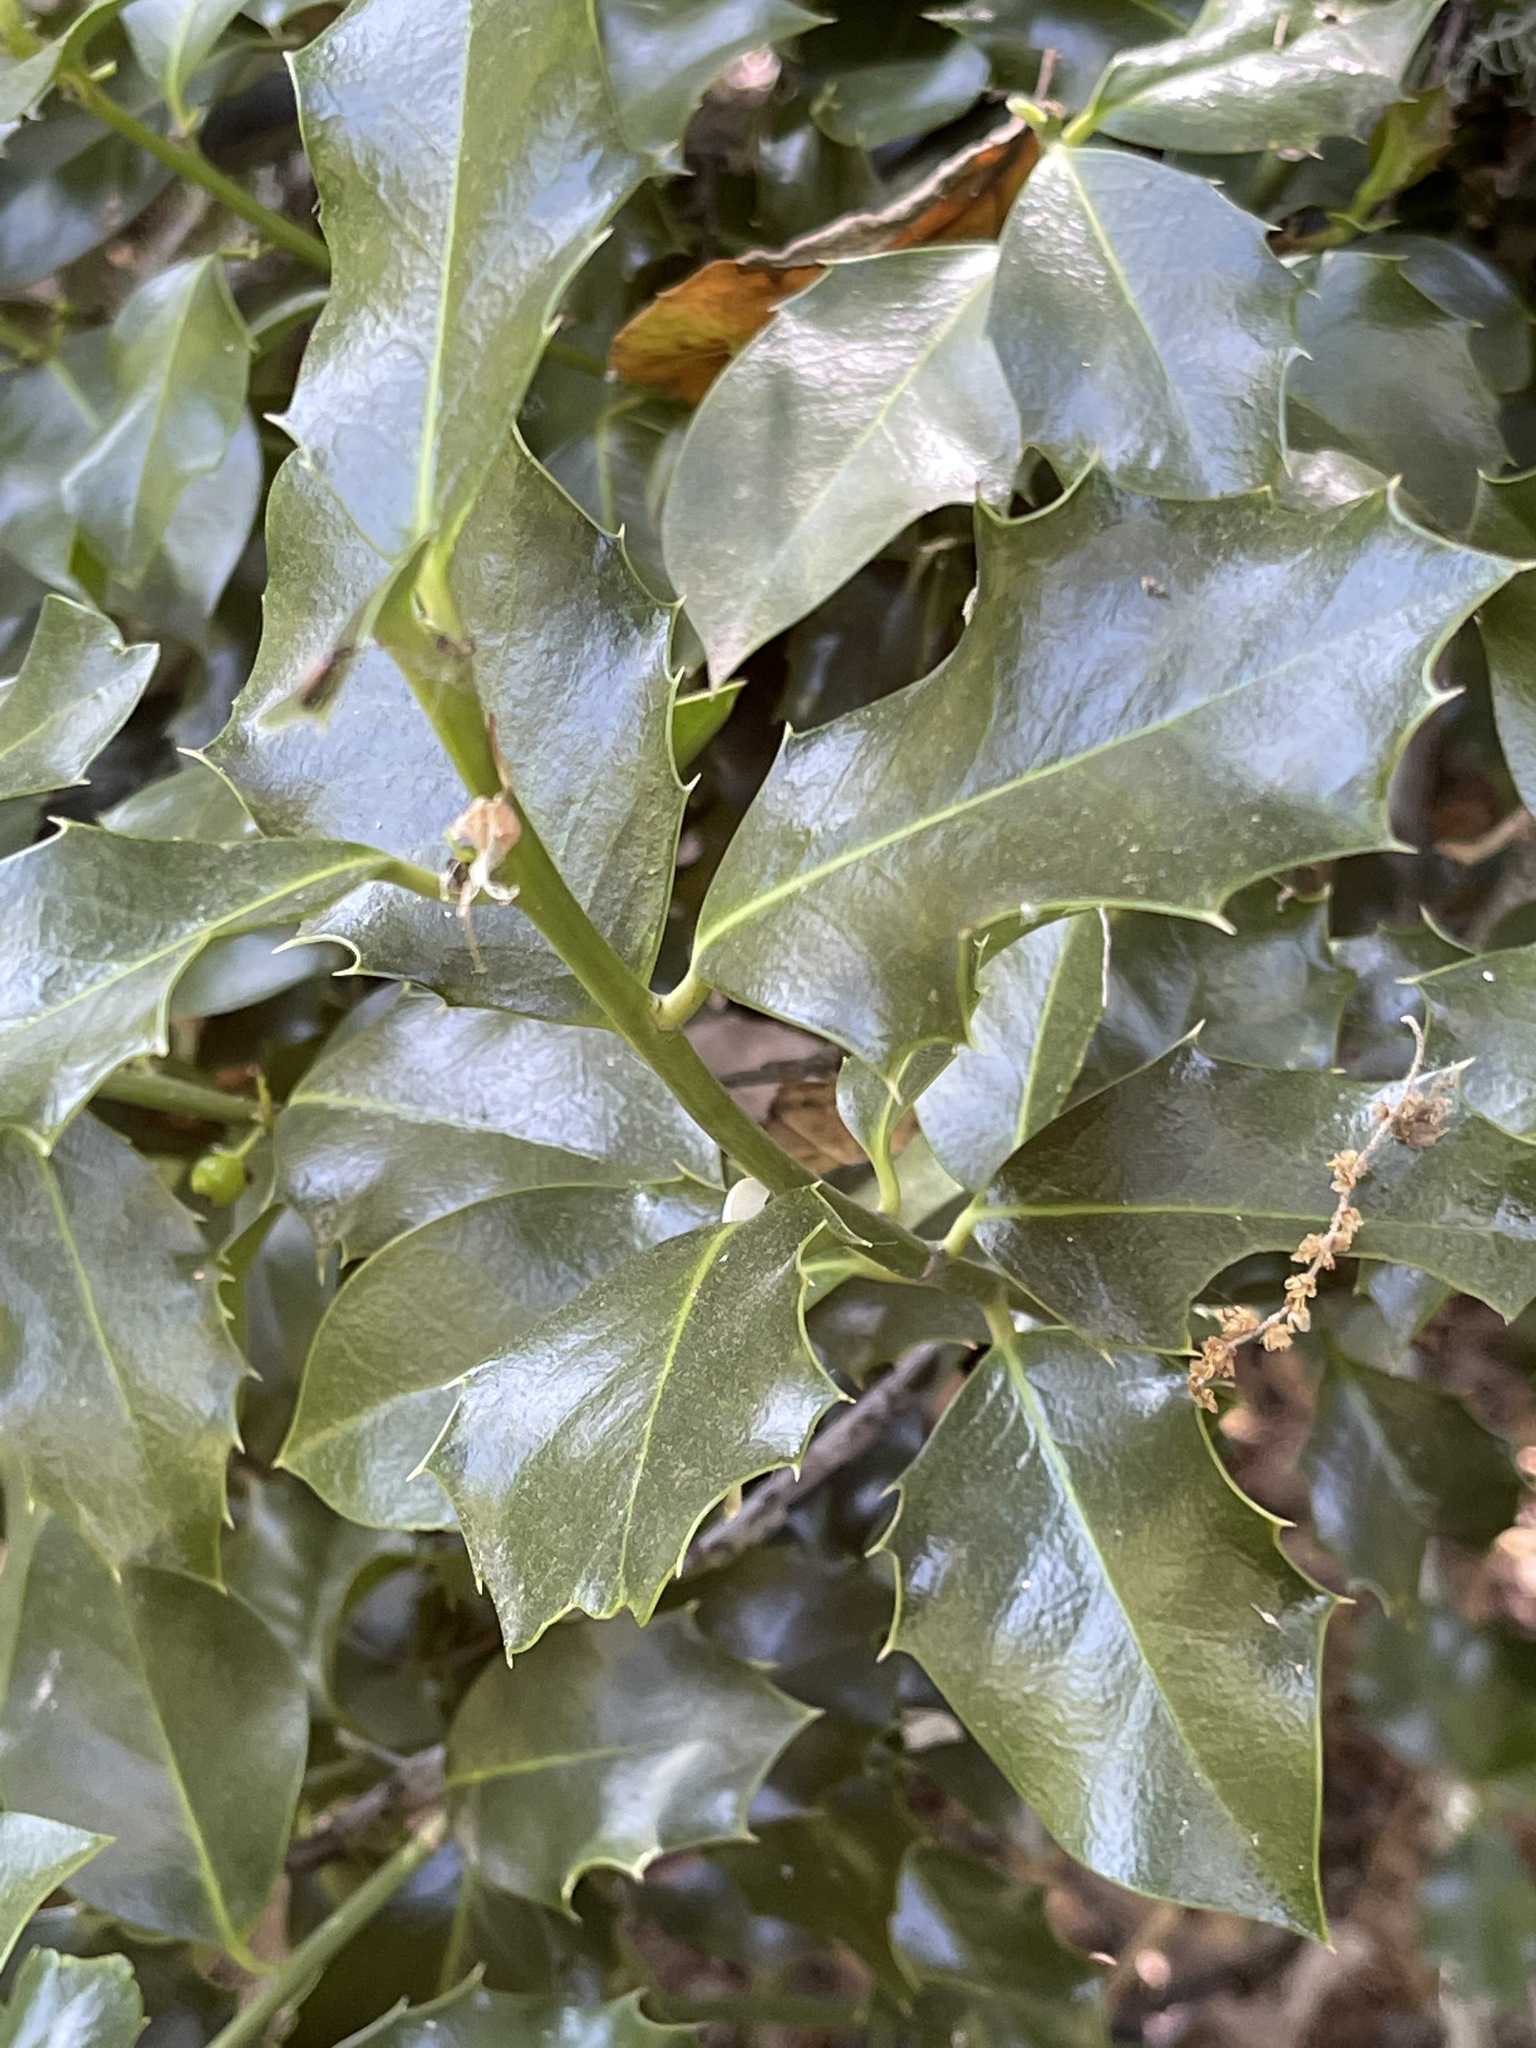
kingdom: Plantae
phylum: Tracheophyta
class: Magnoliopsida
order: Aquifoliales
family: Aquifoliaceae
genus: Ilex
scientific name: Ilex aquifolium
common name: English holly
